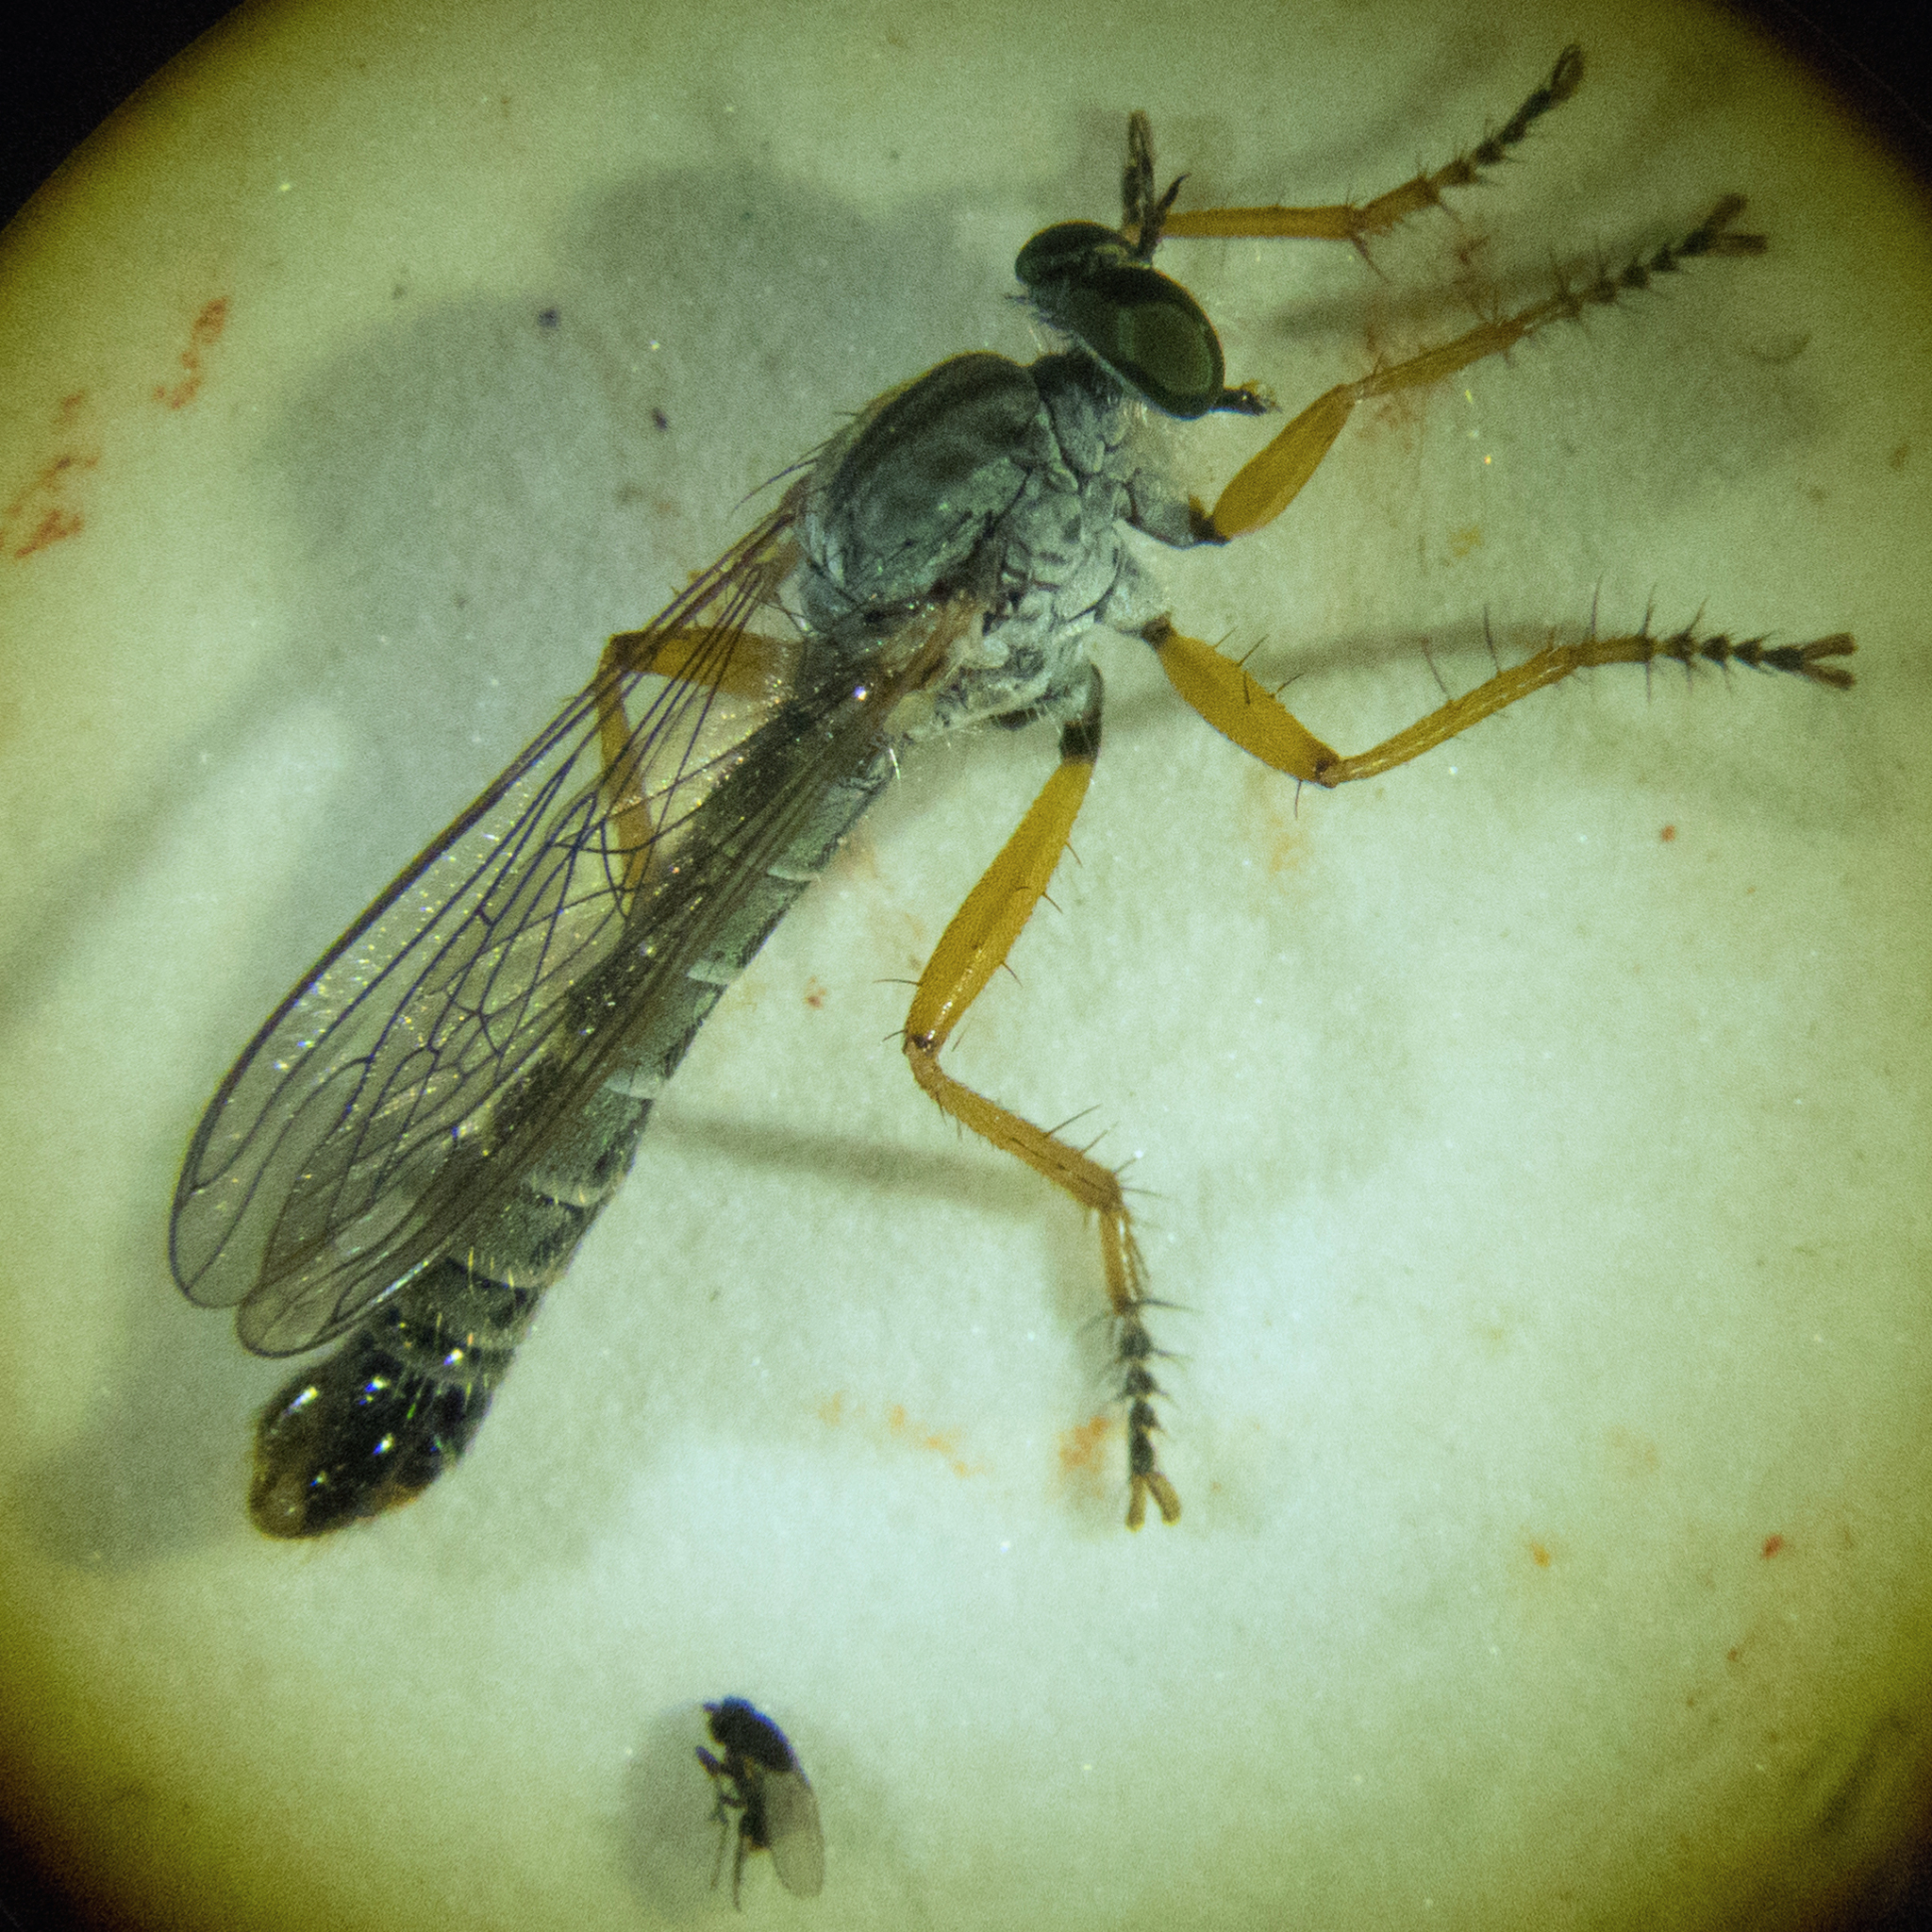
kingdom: Animalia
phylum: Arthropoda
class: Insecta
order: Diptera
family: Asilidae
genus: Neomochtherus
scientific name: Neomochtherus schineri
